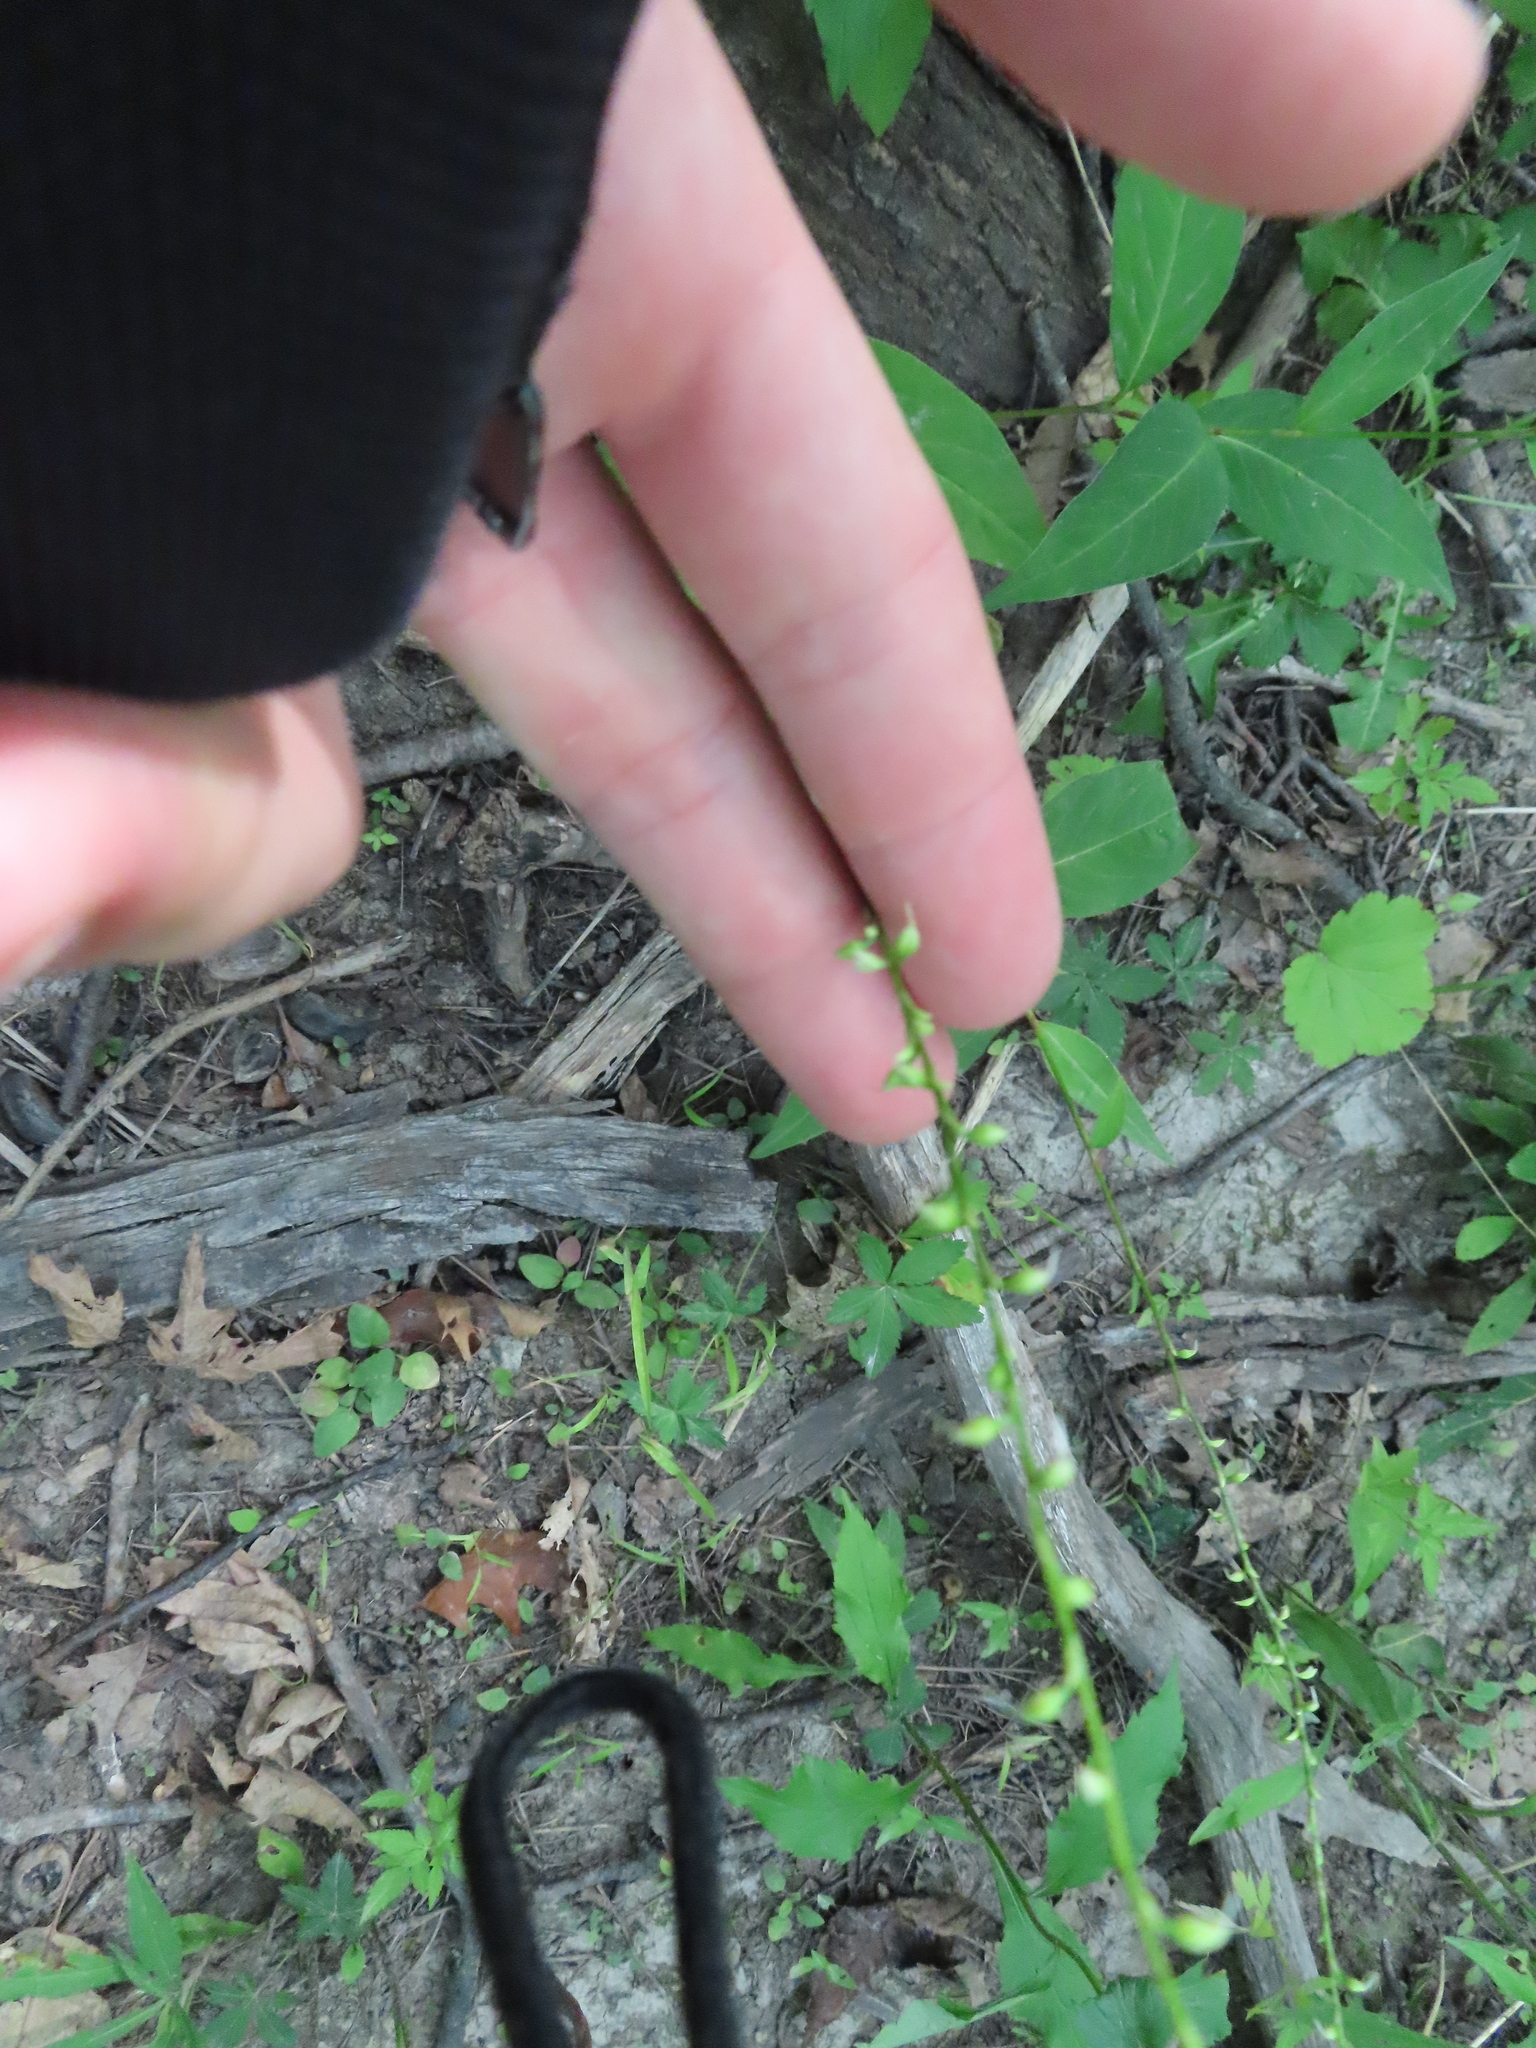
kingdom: Plantae
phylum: Tracheophyta
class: Magnoliopsida
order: Caryophyllales
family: Polygonaceae
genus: Persicaria
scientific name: Persicaria virginiana
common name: Jumpseed
